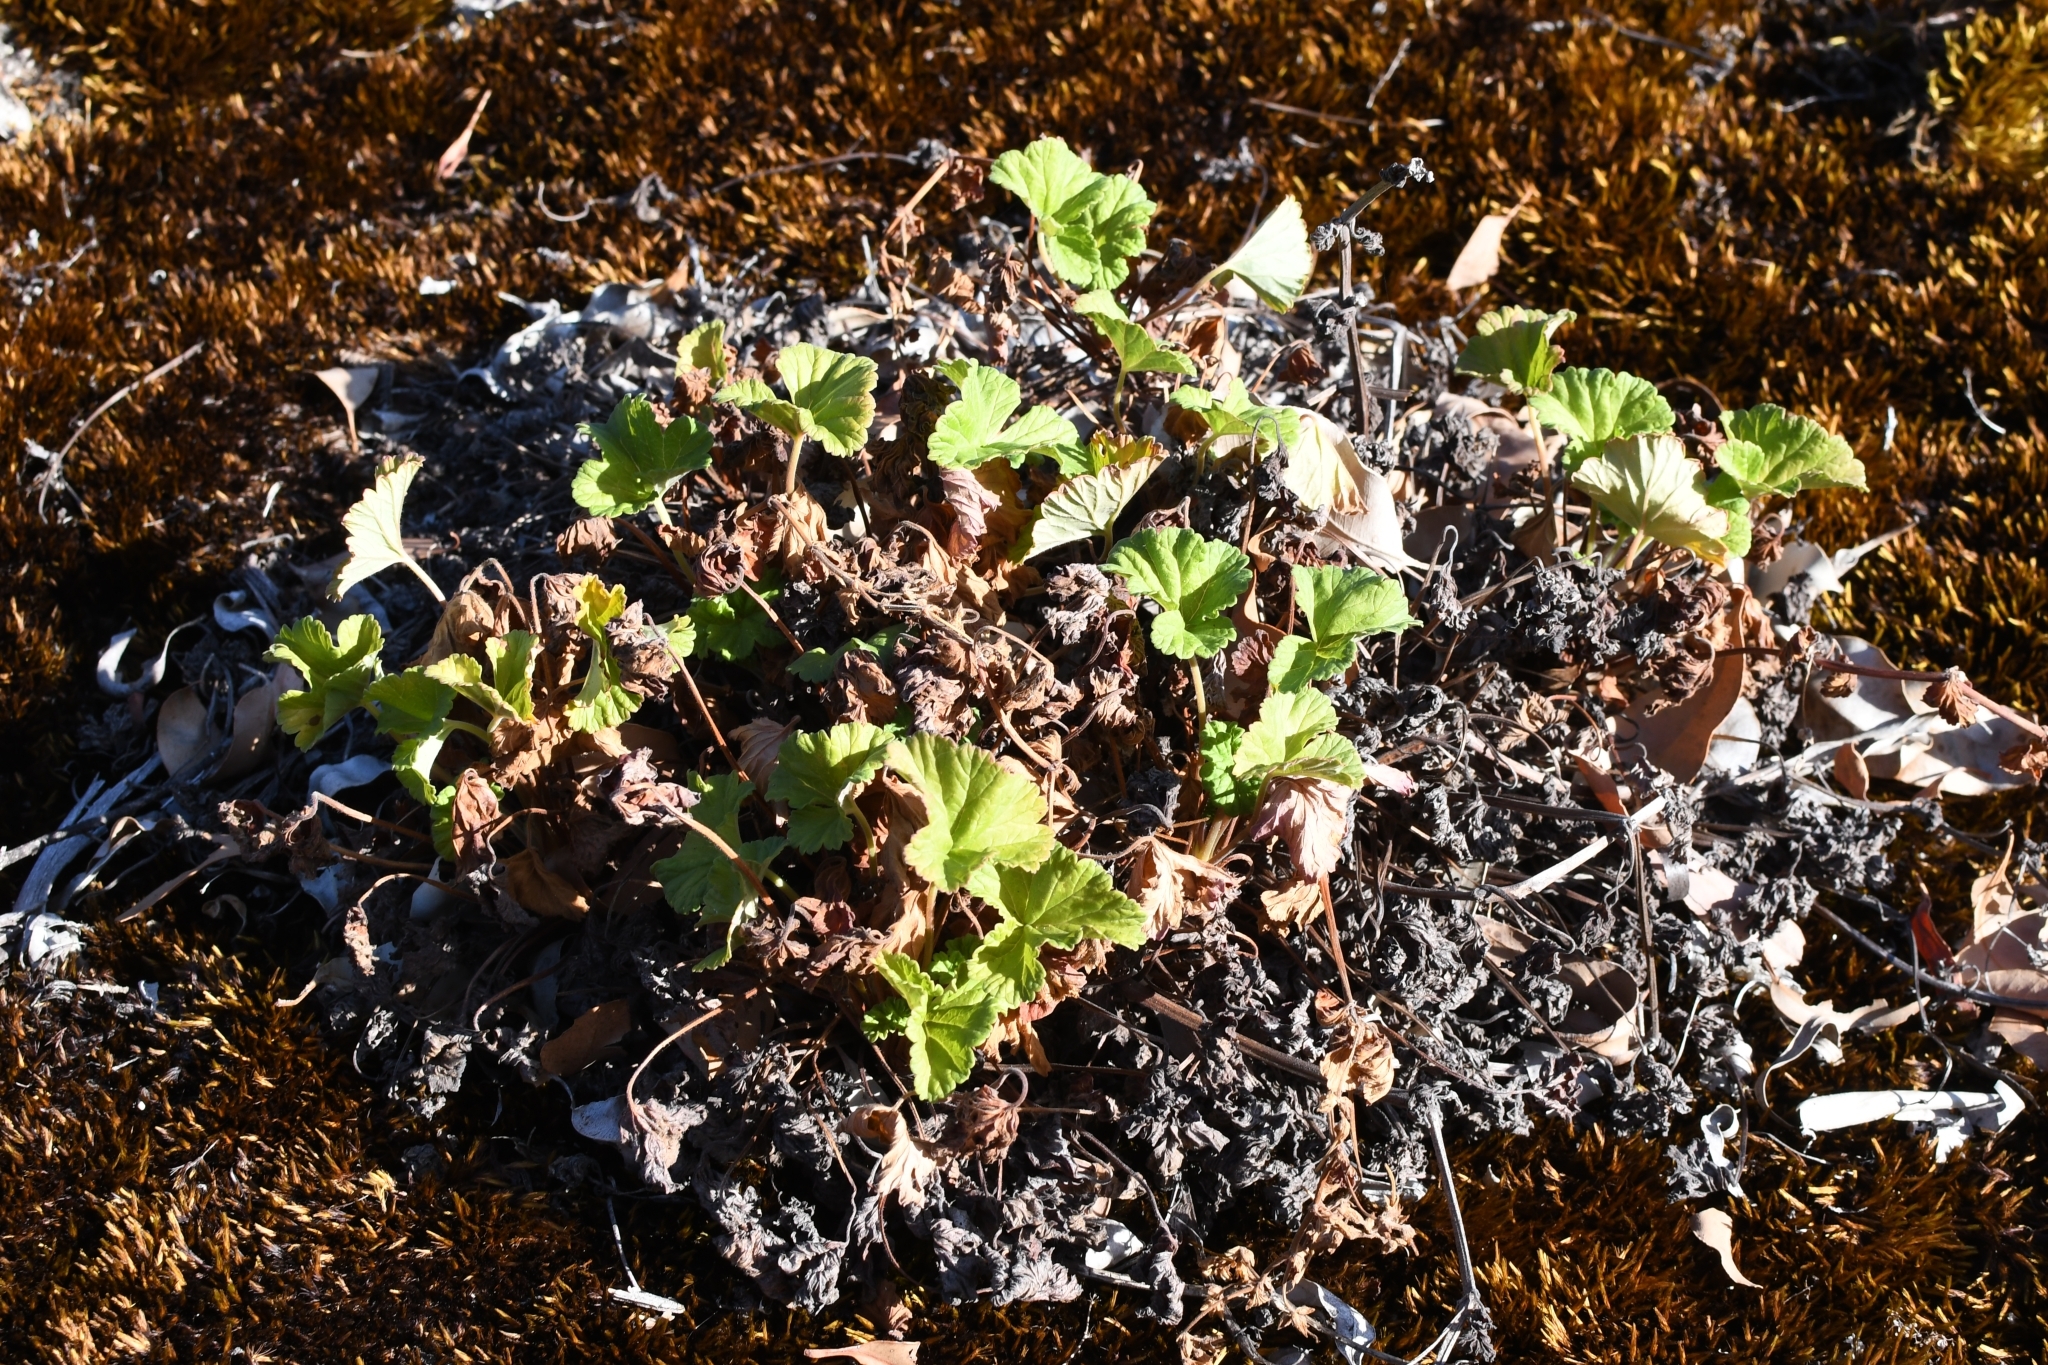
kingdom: Plantae
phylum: Tracheophyta
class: Magnoliopsida
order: Geraniales
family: Geraniaceae
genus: Pelargonium
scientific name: Pelargonium drummondii
